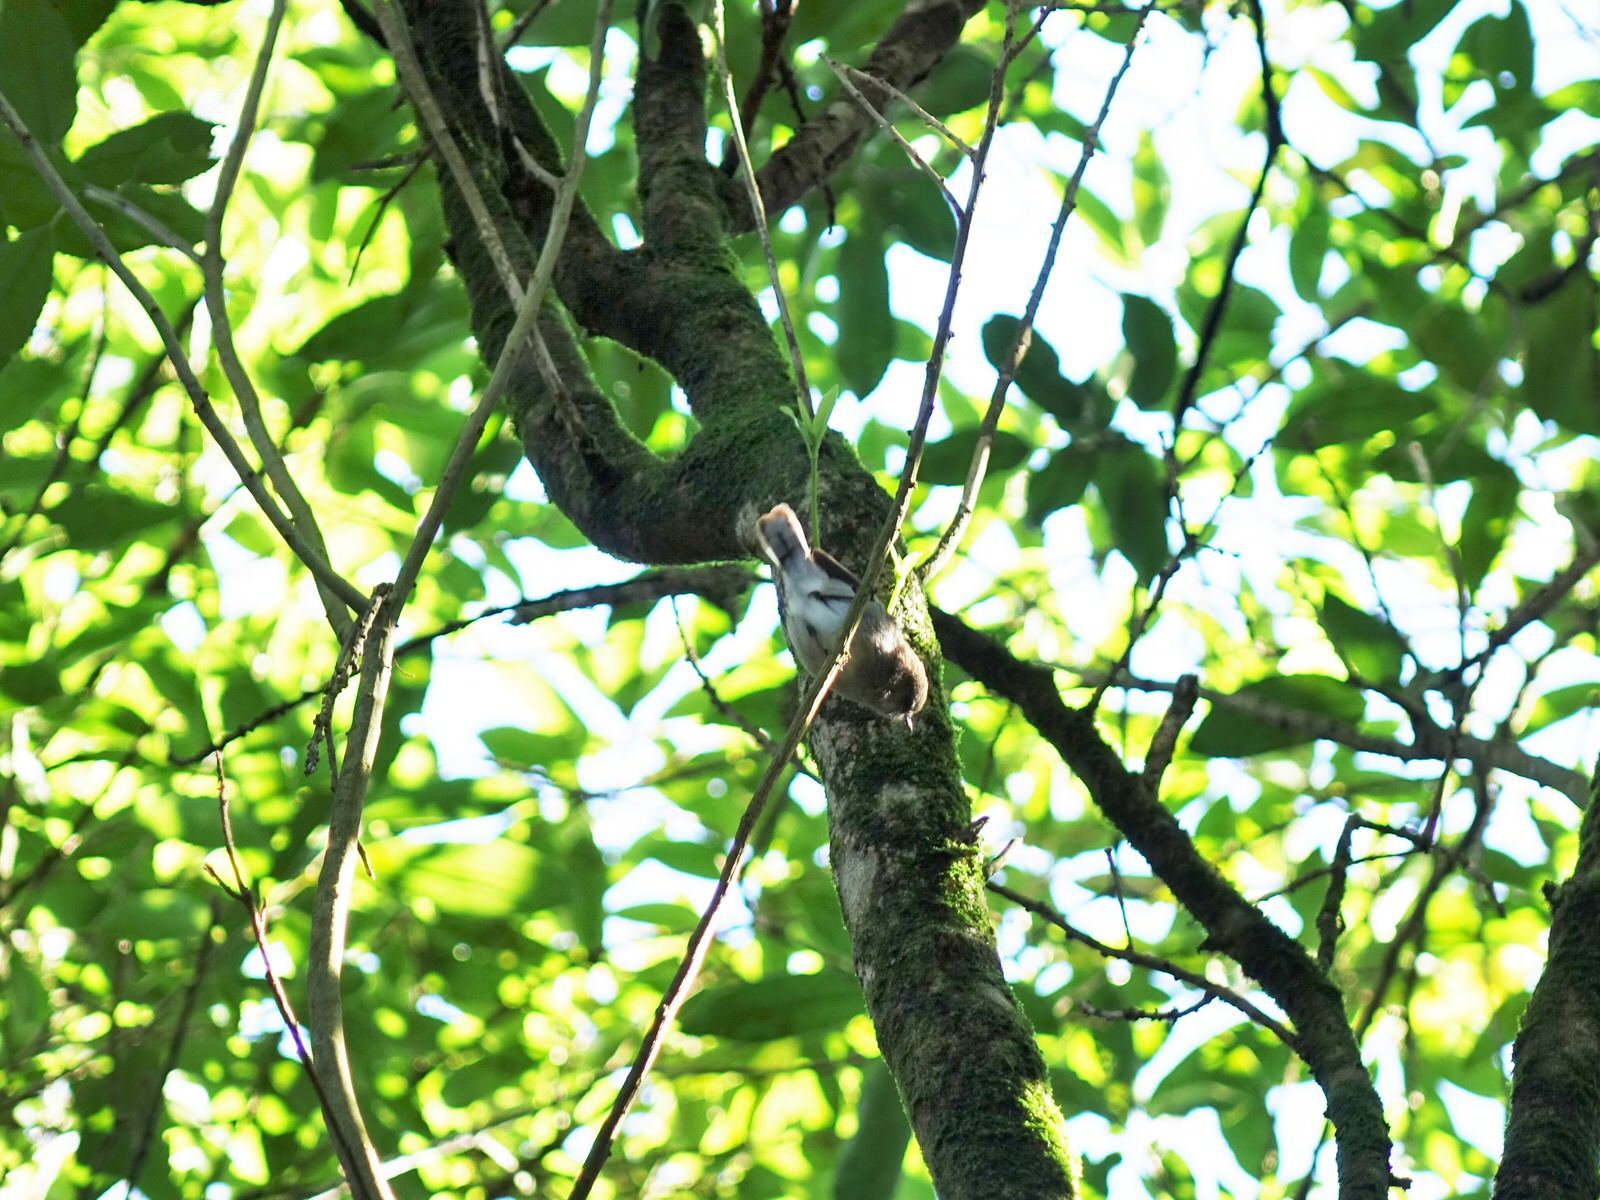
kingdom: Animalia
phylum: Chordata
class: Aves
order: Passeriformes
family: Acanthizidae
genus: Gerygone
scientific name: Gerygone igata
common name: Grey gerygone
